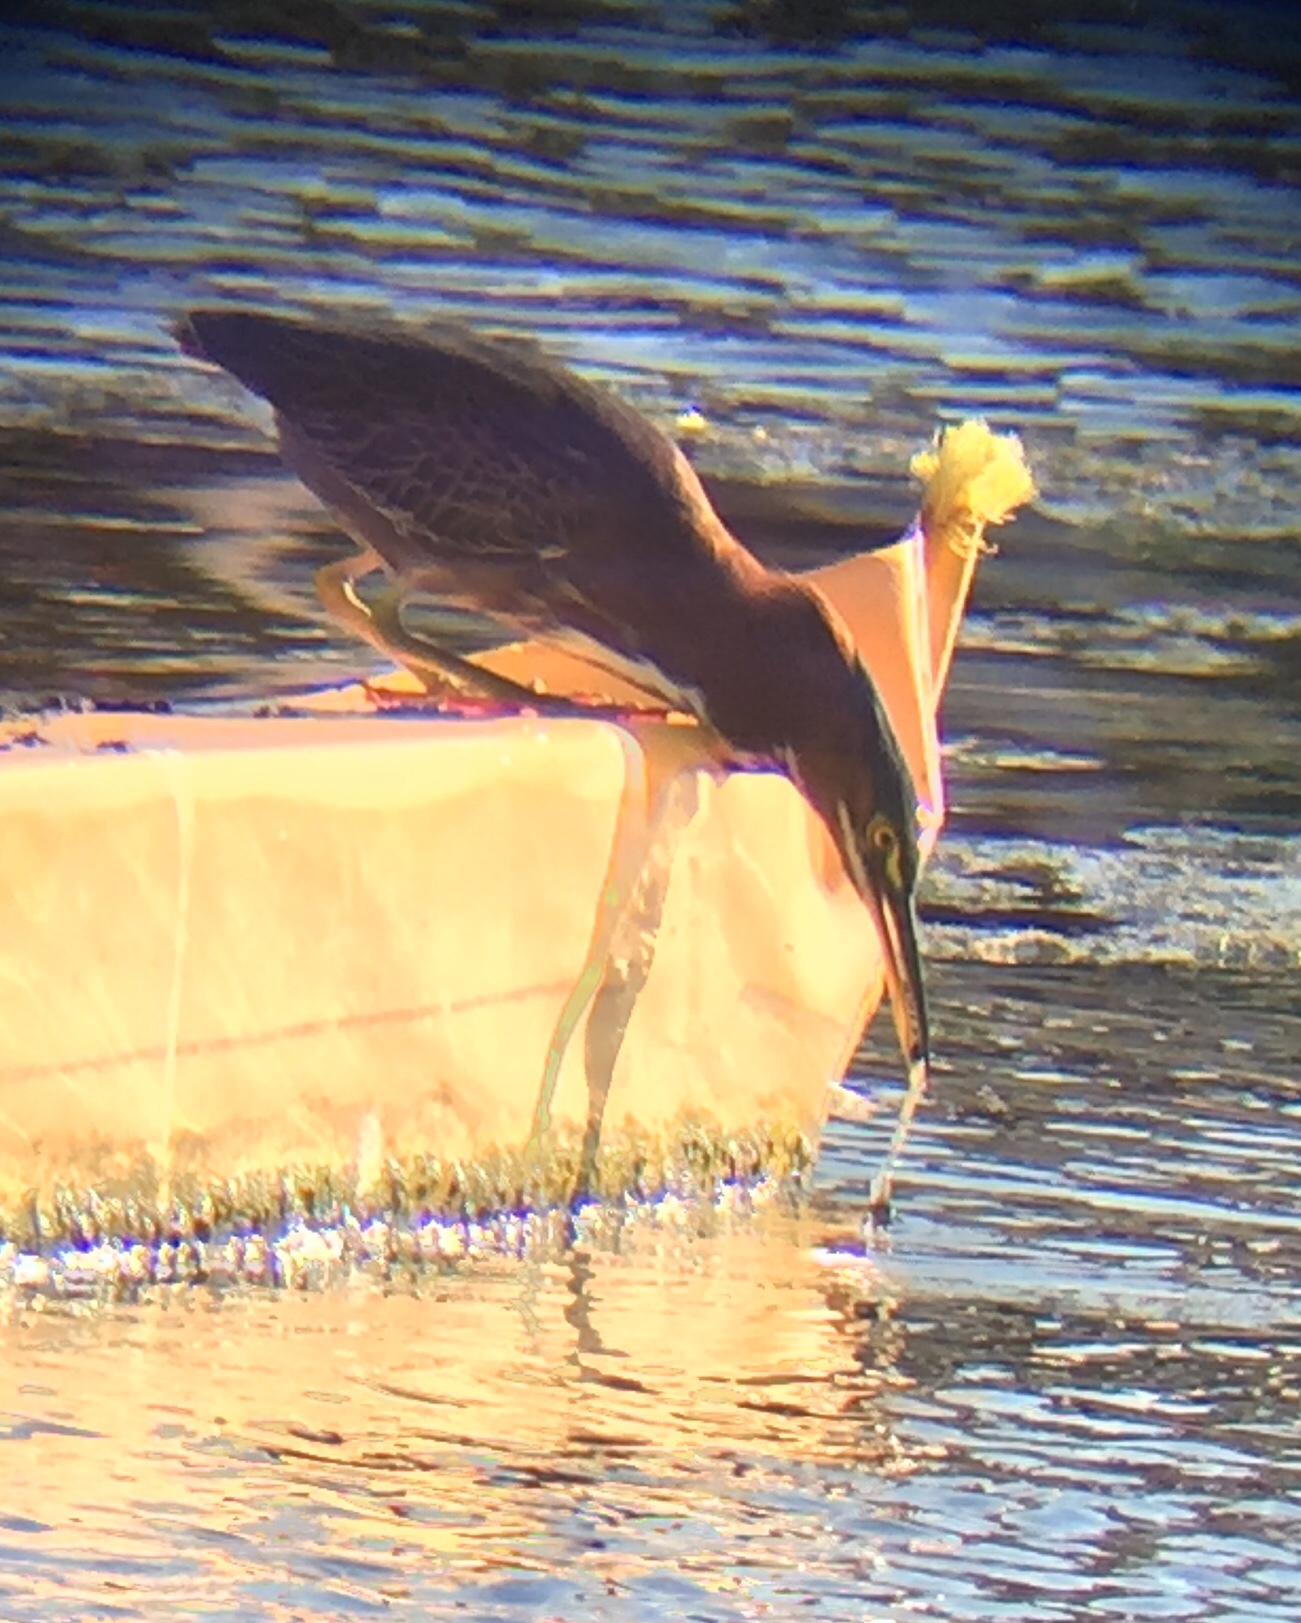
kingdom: Animalia
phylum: Chordata
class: Aves
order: Pelecaniformes
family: Ardeidae
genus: Butorides
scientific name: Butorides virescens
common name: Green heron
